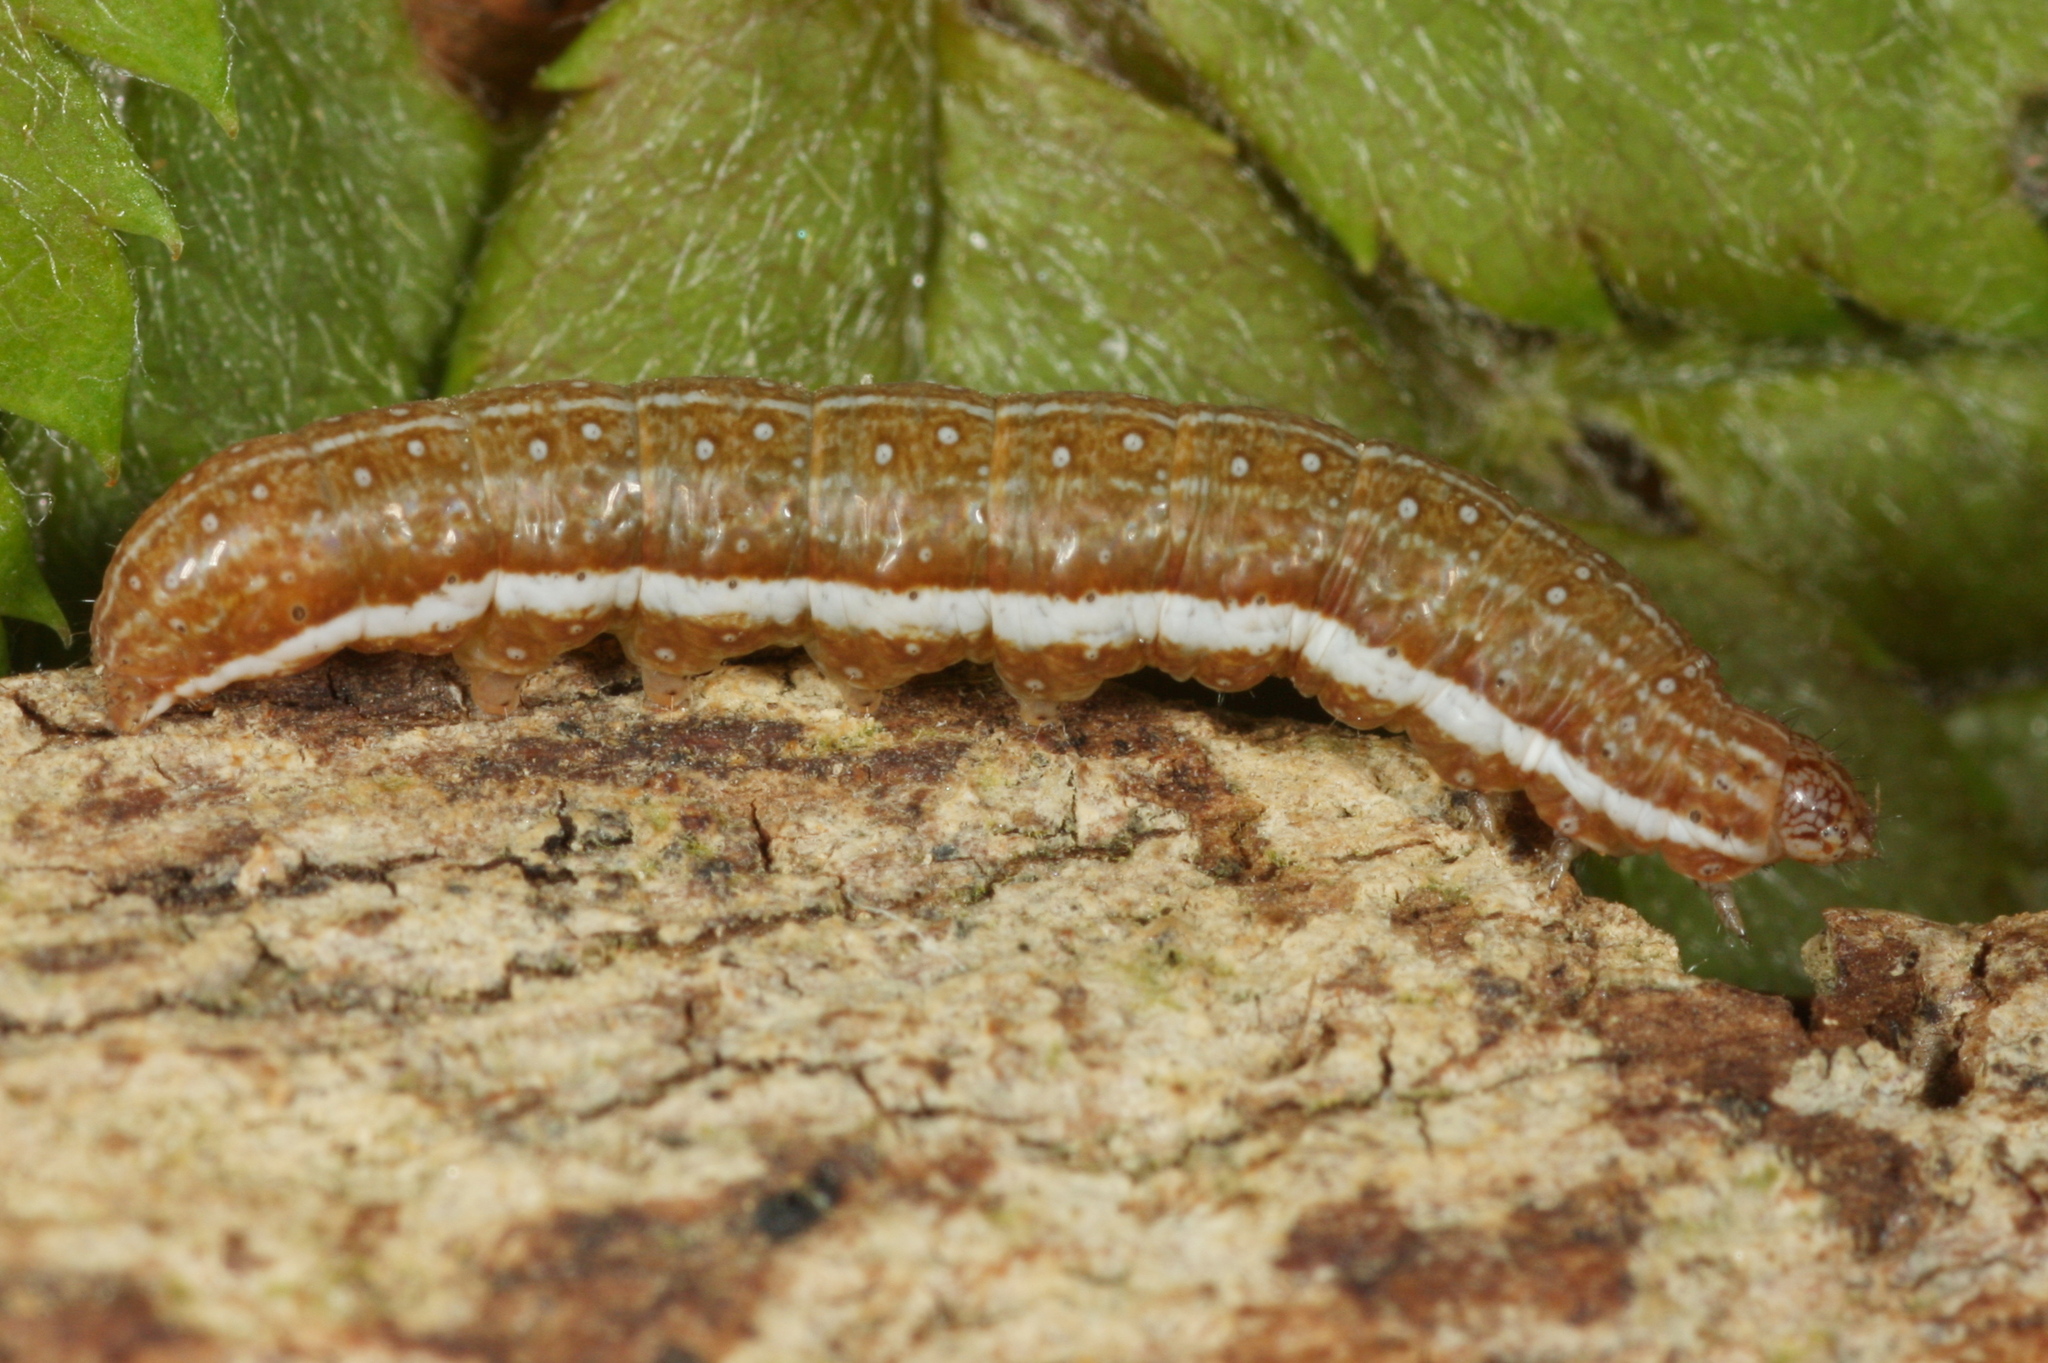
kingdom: Animalia
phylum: Arthropoda
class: Insecta
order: Lepidoptera
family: Noctuidae
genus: Agrochola
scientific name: Agrochola helvola
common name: Flounced chestnut
